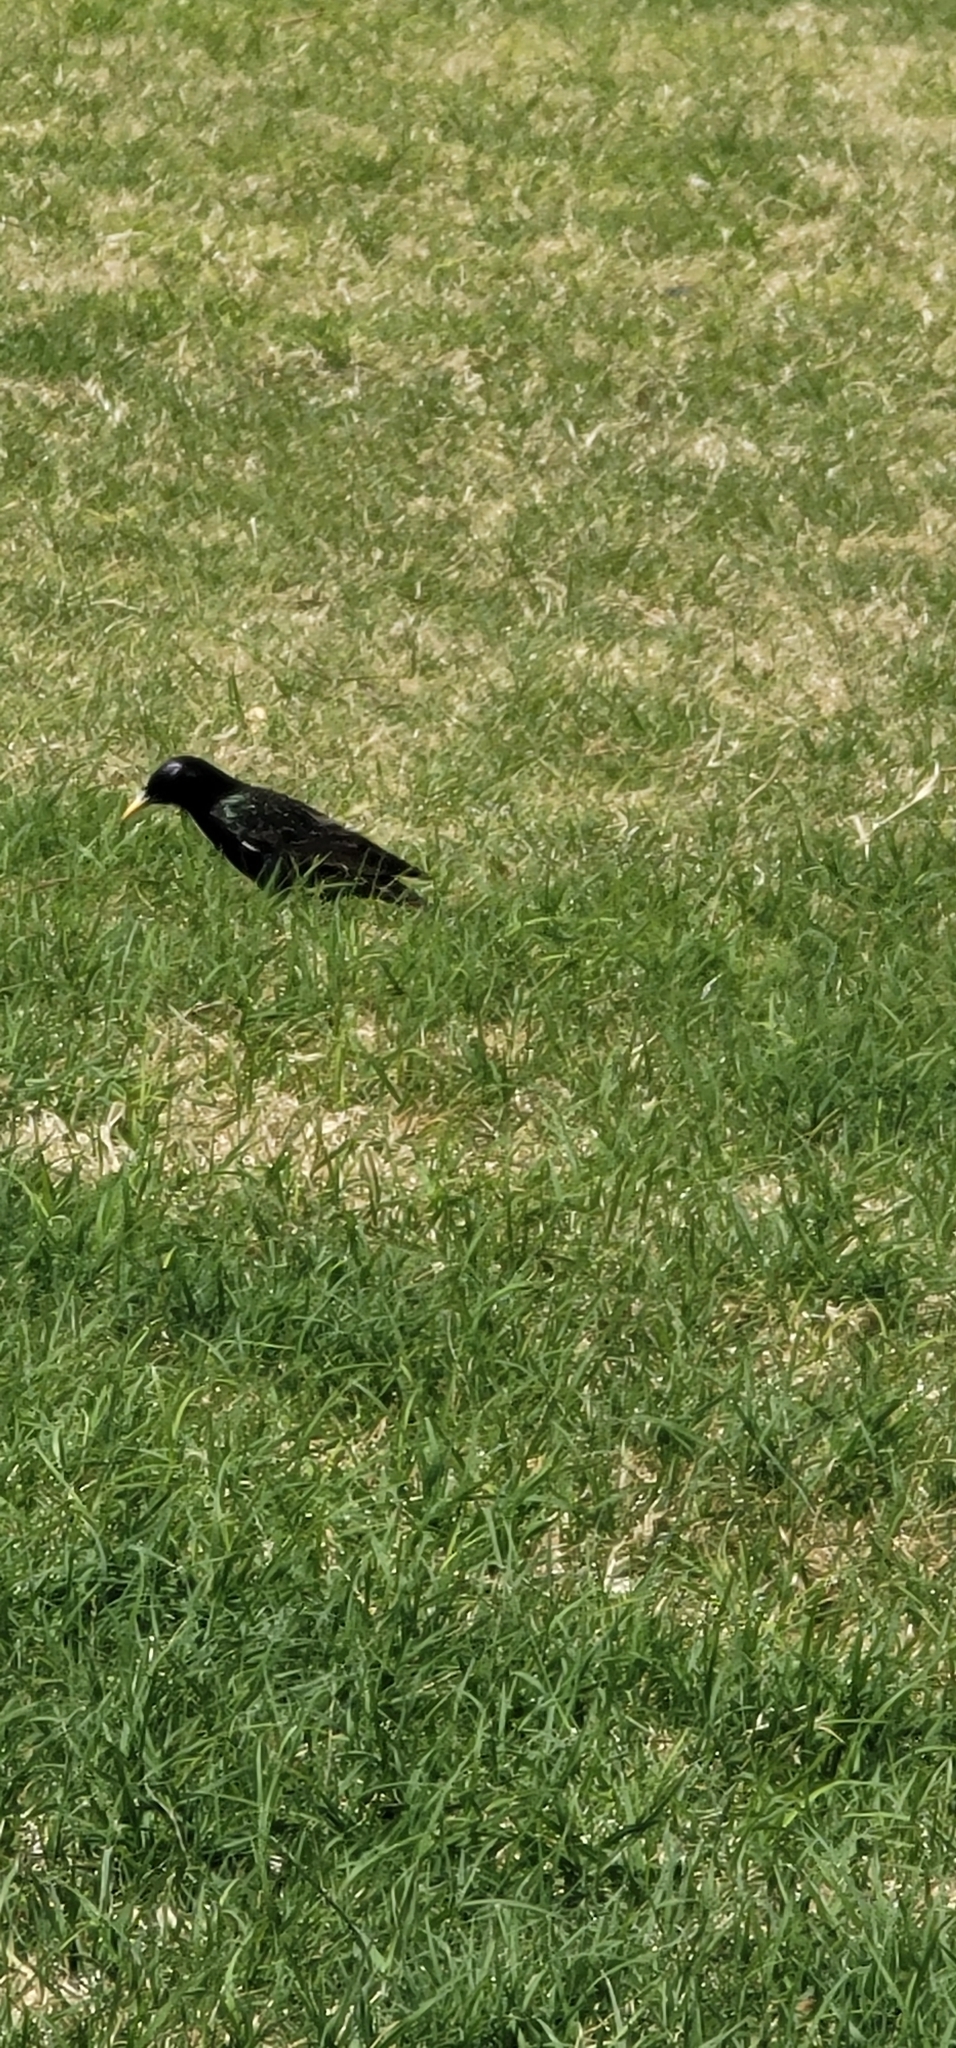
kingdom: Animalia
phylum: Chordata
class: Aves
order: Passeriformes
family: Sturnidae
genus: Sturnus
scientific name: Sturnus vulgaris
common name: Common starling
